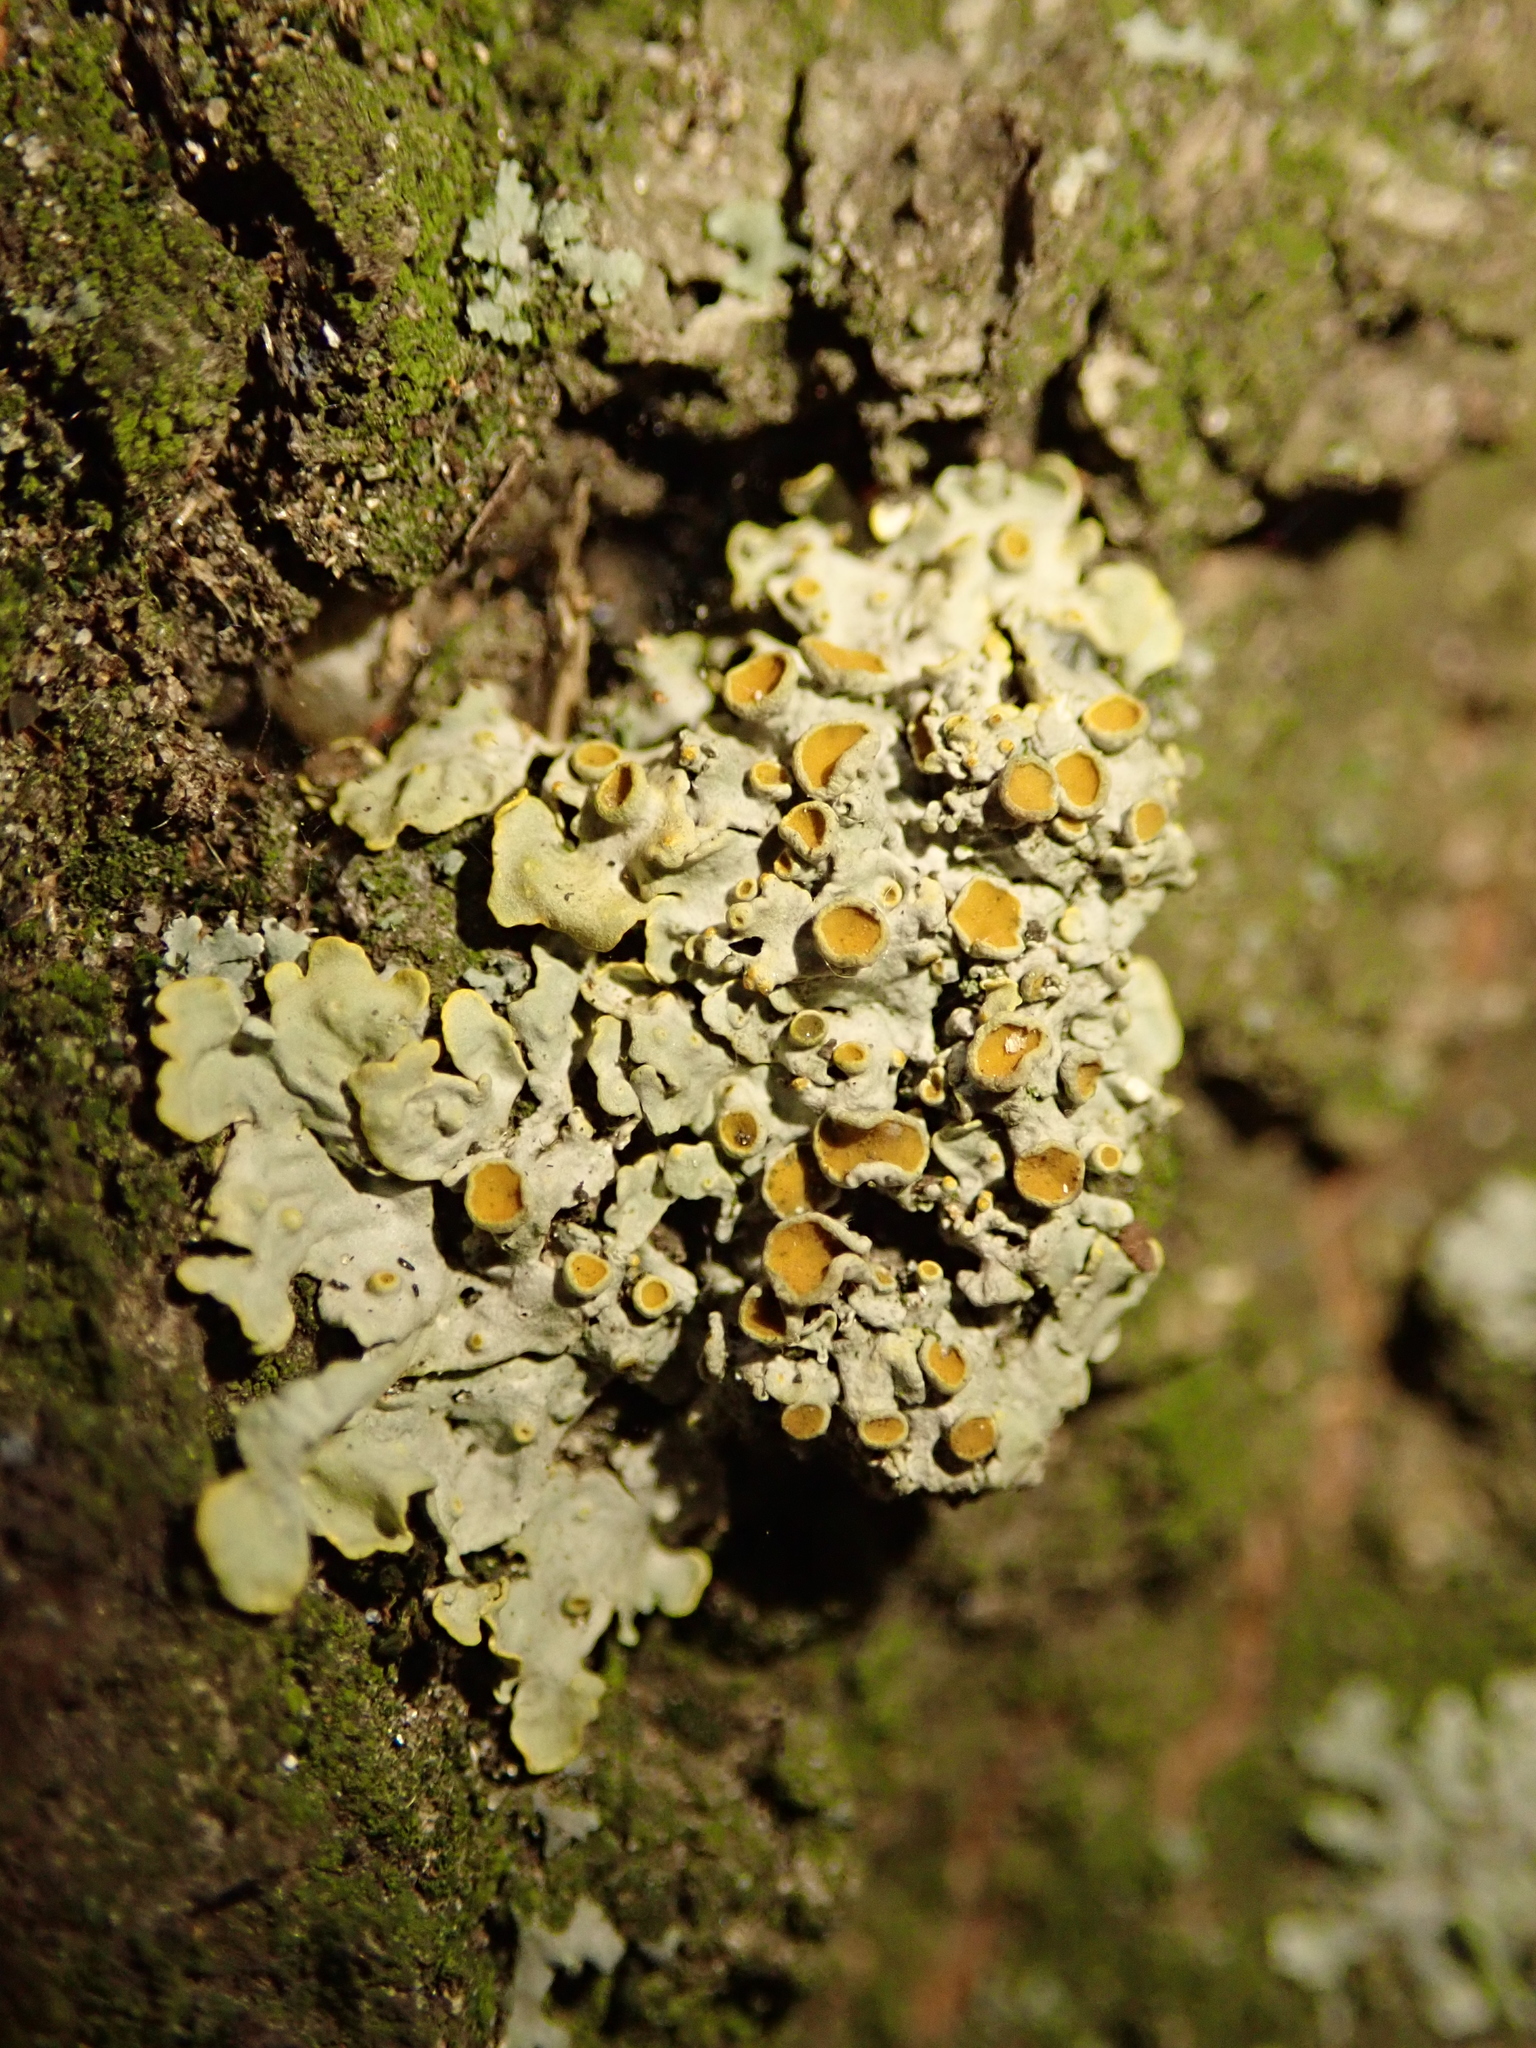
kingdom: Fungi
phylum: Ascomycota
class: Lecanoromycetes
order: Teloschistales
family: Teloschistaceae
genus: Xanthoria
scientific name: Xanthoria parietina
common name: Common orange lichen
